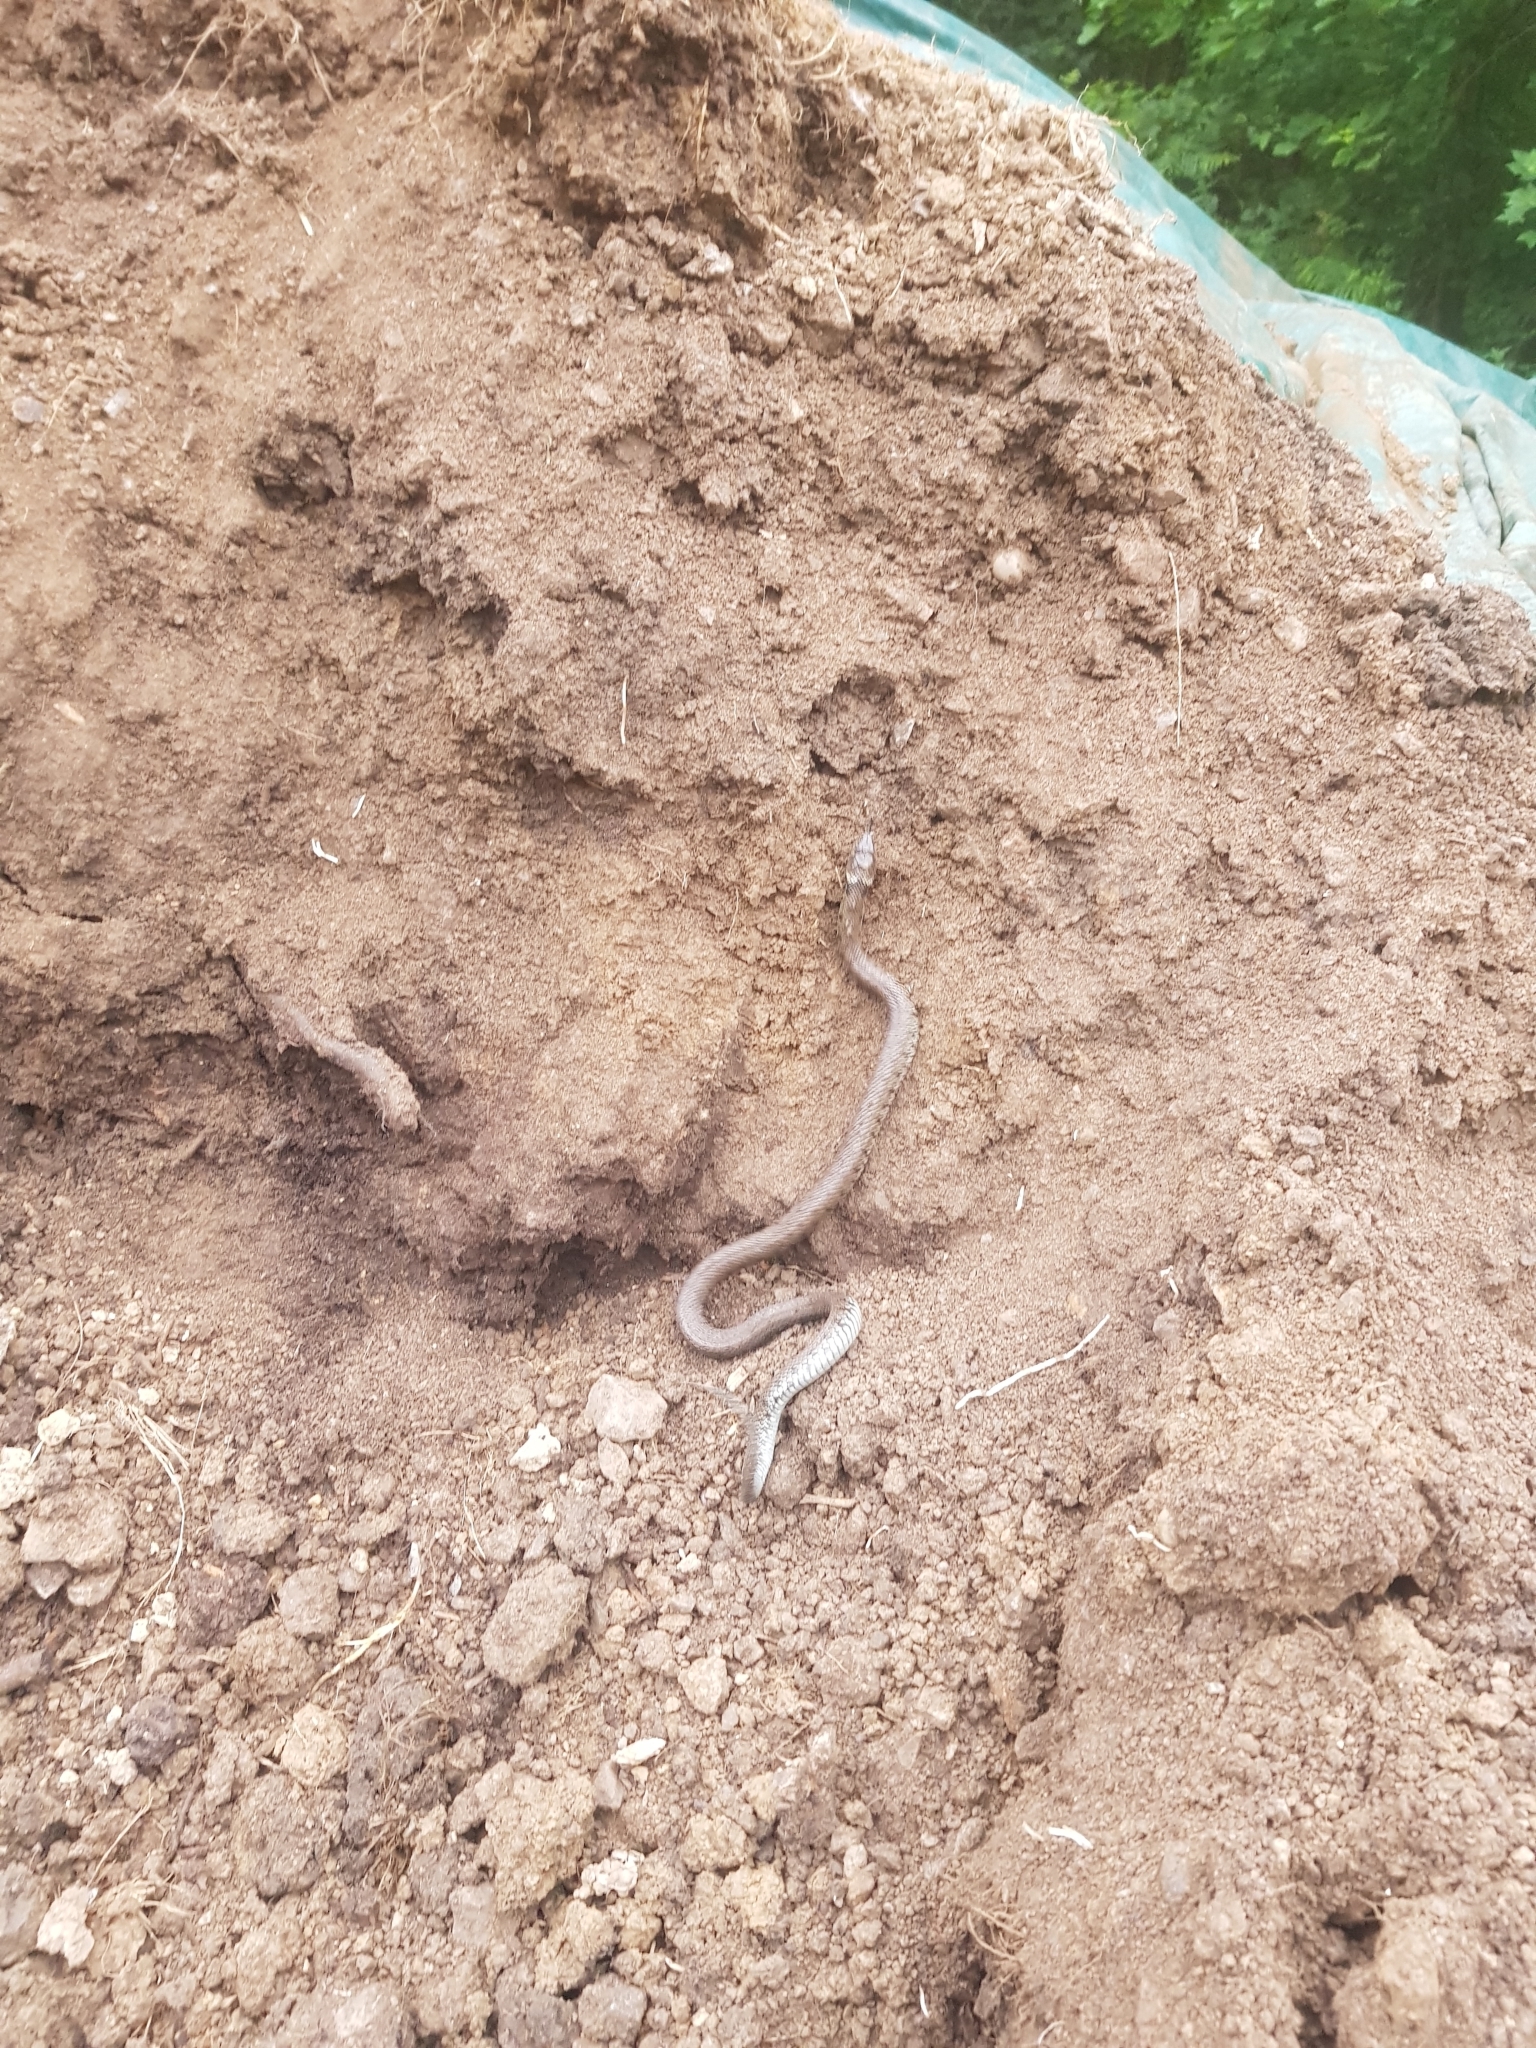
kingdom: Animalia
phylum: Chordata
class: Squamata
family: Colubridae
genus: Natrix
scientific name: Natrix helvetica
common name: Banded grass snake
